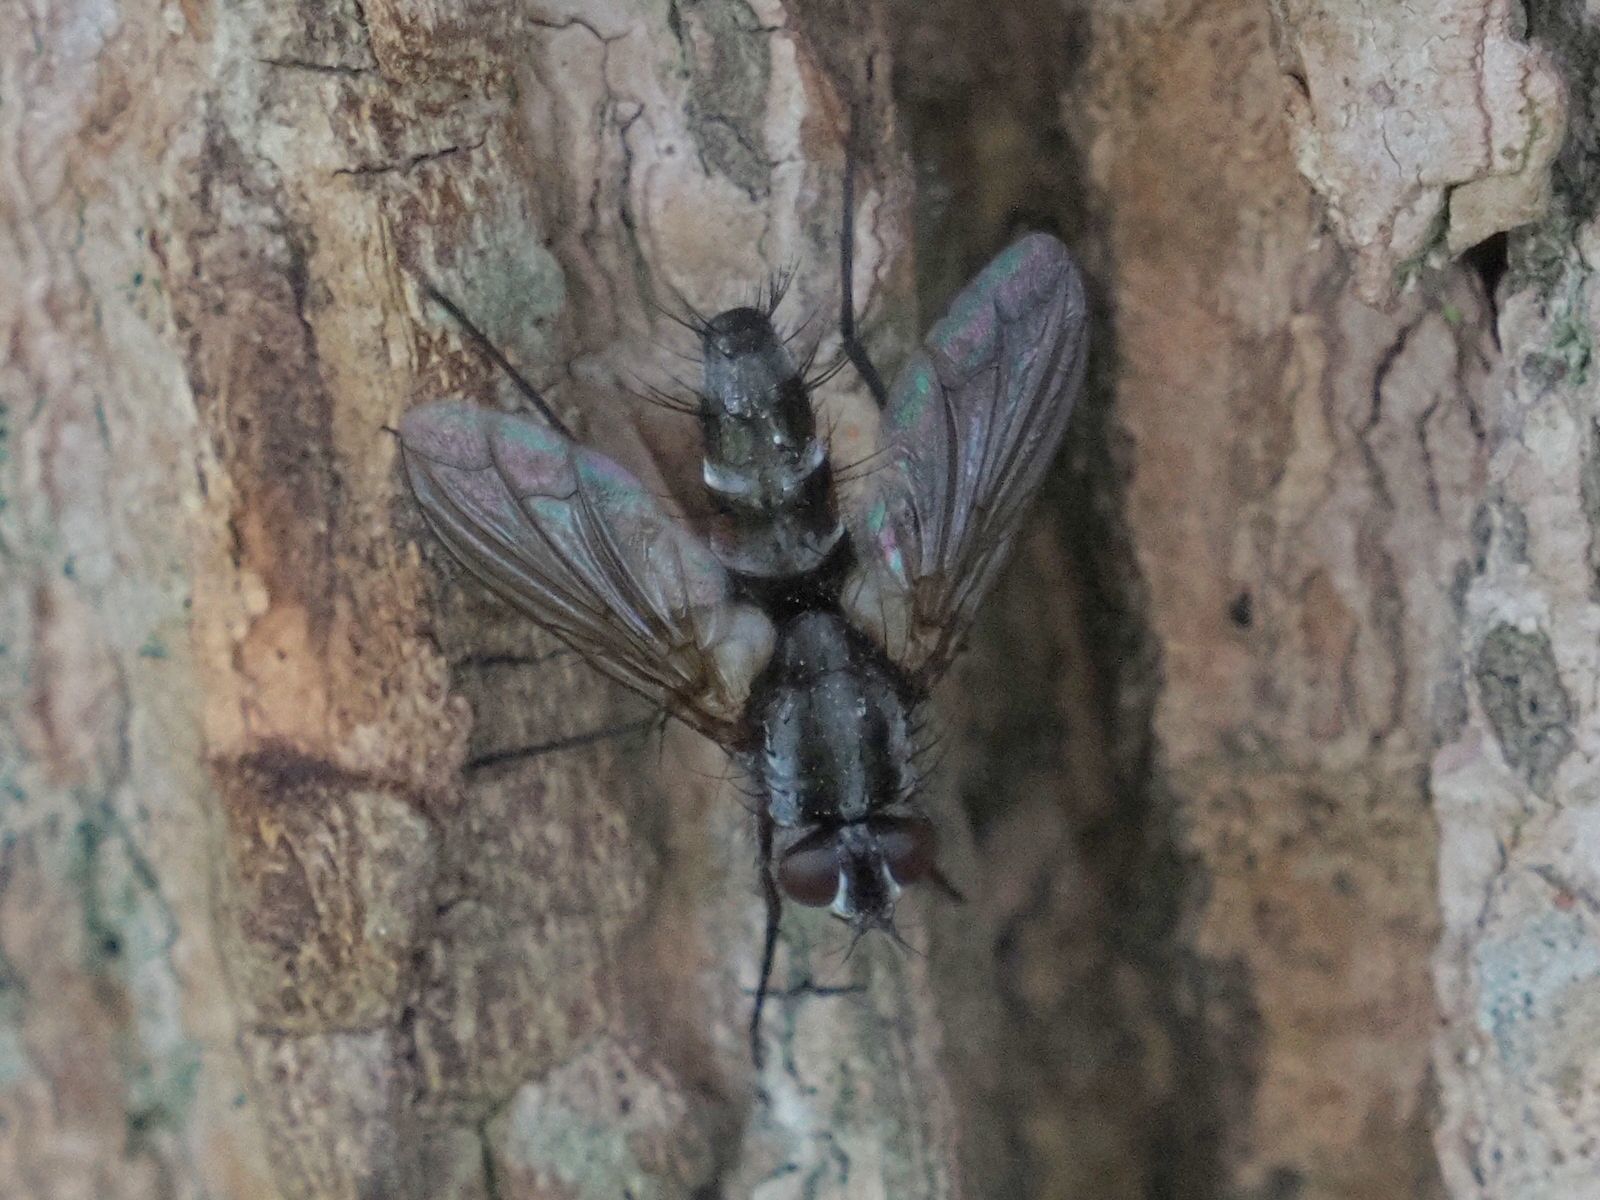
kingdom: Animalia
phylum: Arthropoda
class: Insecta
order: Diptera
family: Tachinidae
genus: Mintho
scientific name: Mintho rufiventris
